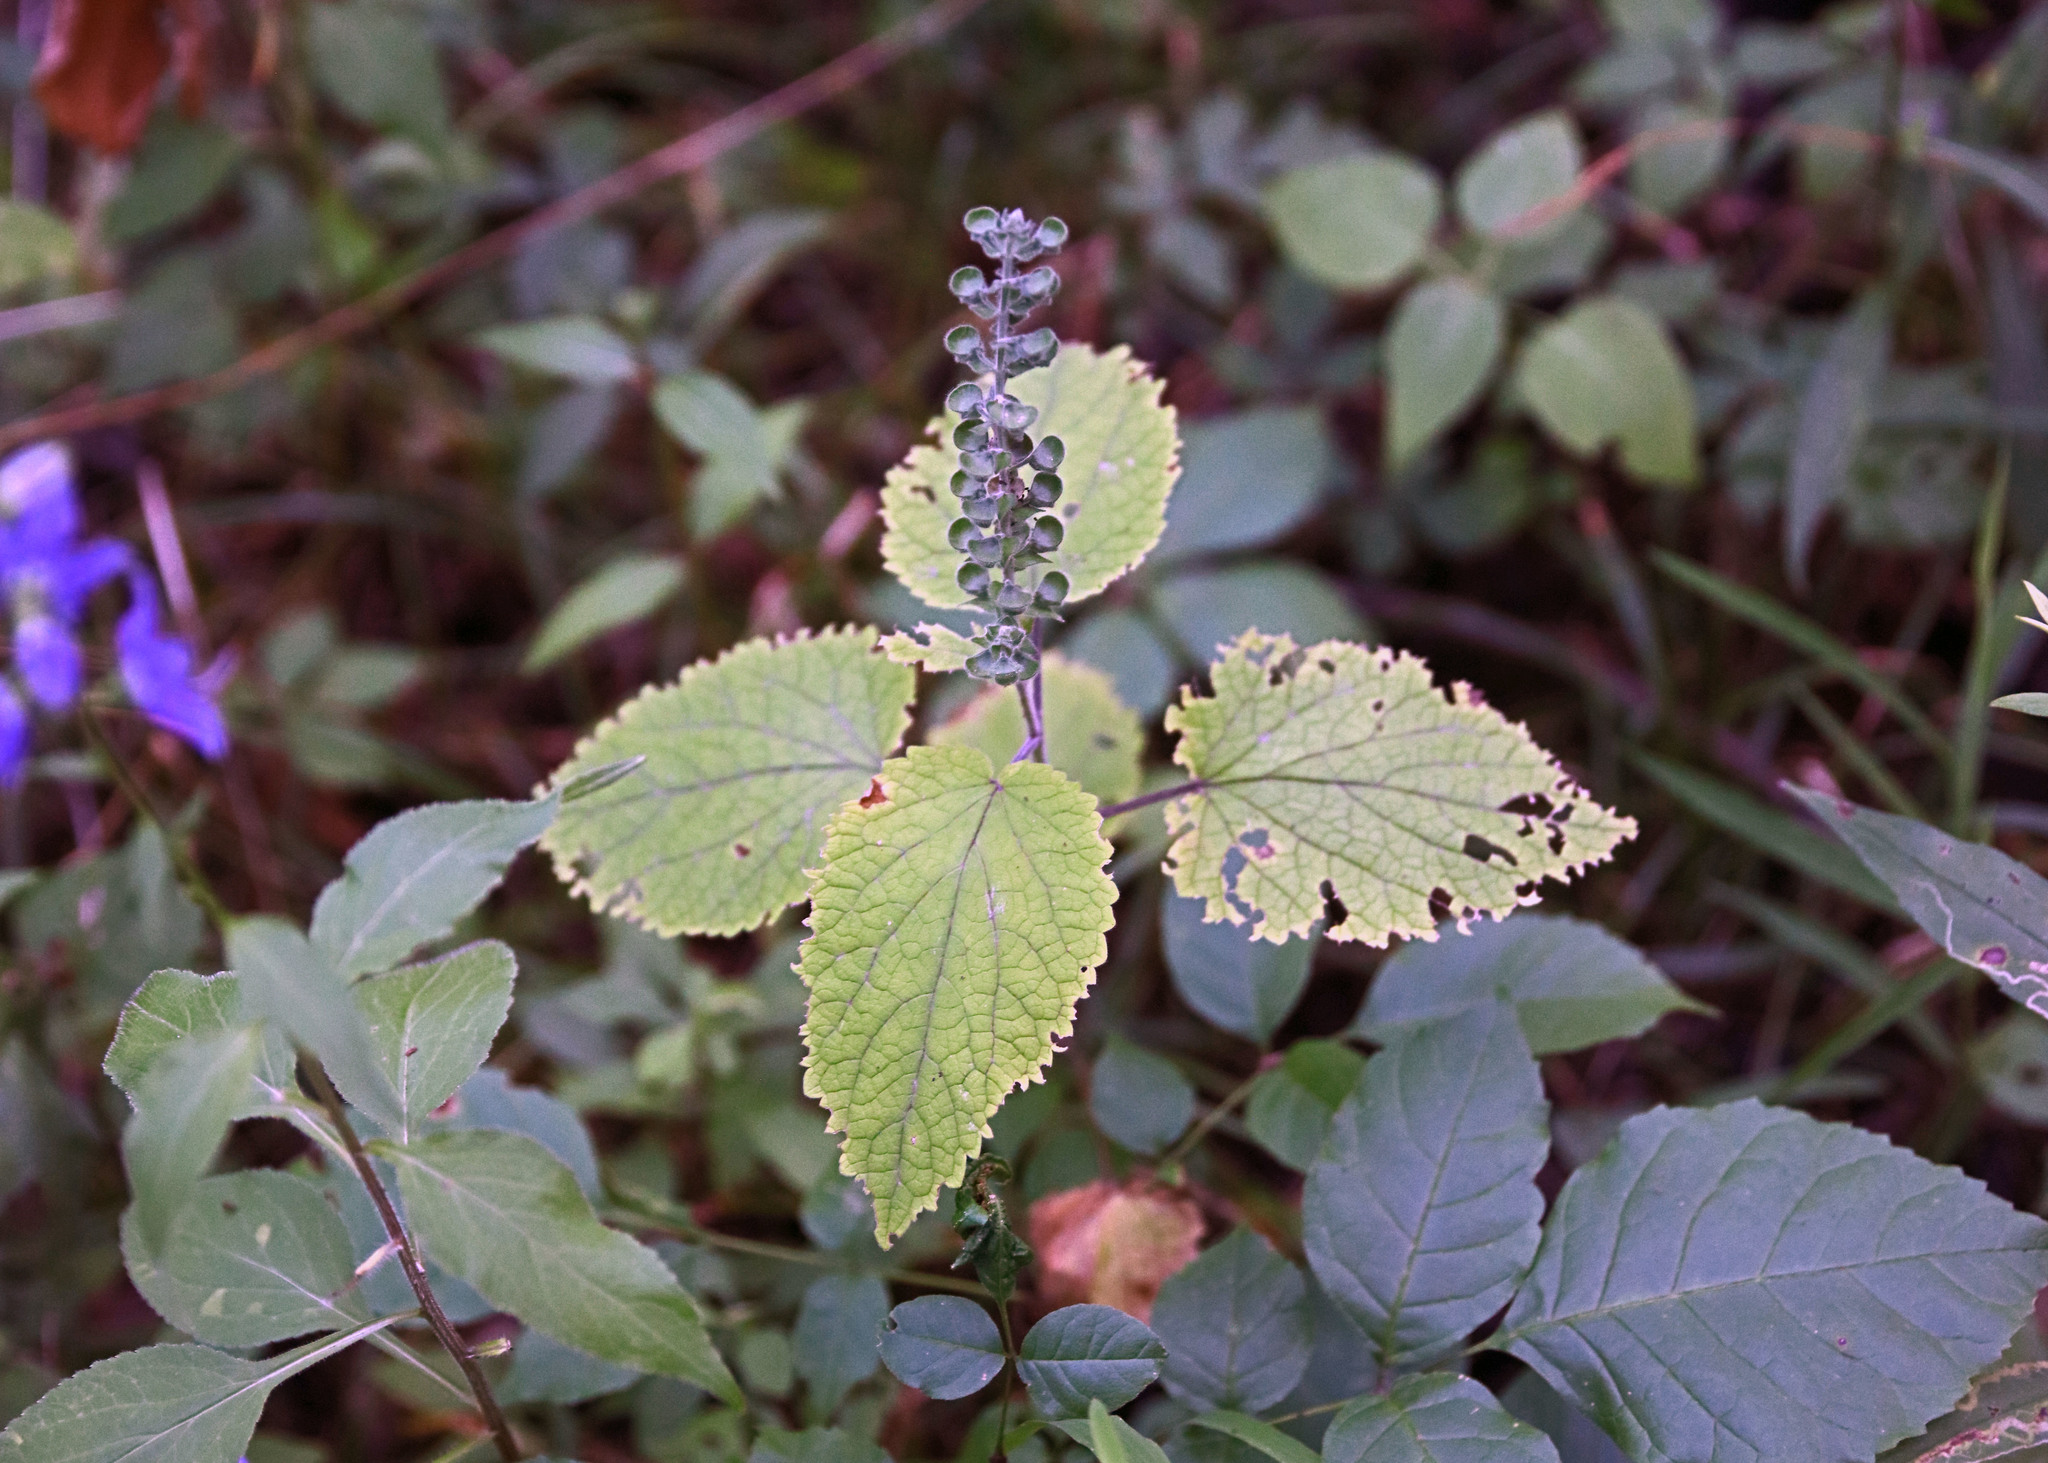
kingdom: Plantae
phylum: Tracheophyta
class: Magnoliopsida
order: Lamiales
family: Lamiaceae
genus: Scutellaria
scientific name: Scutellaria ovata
